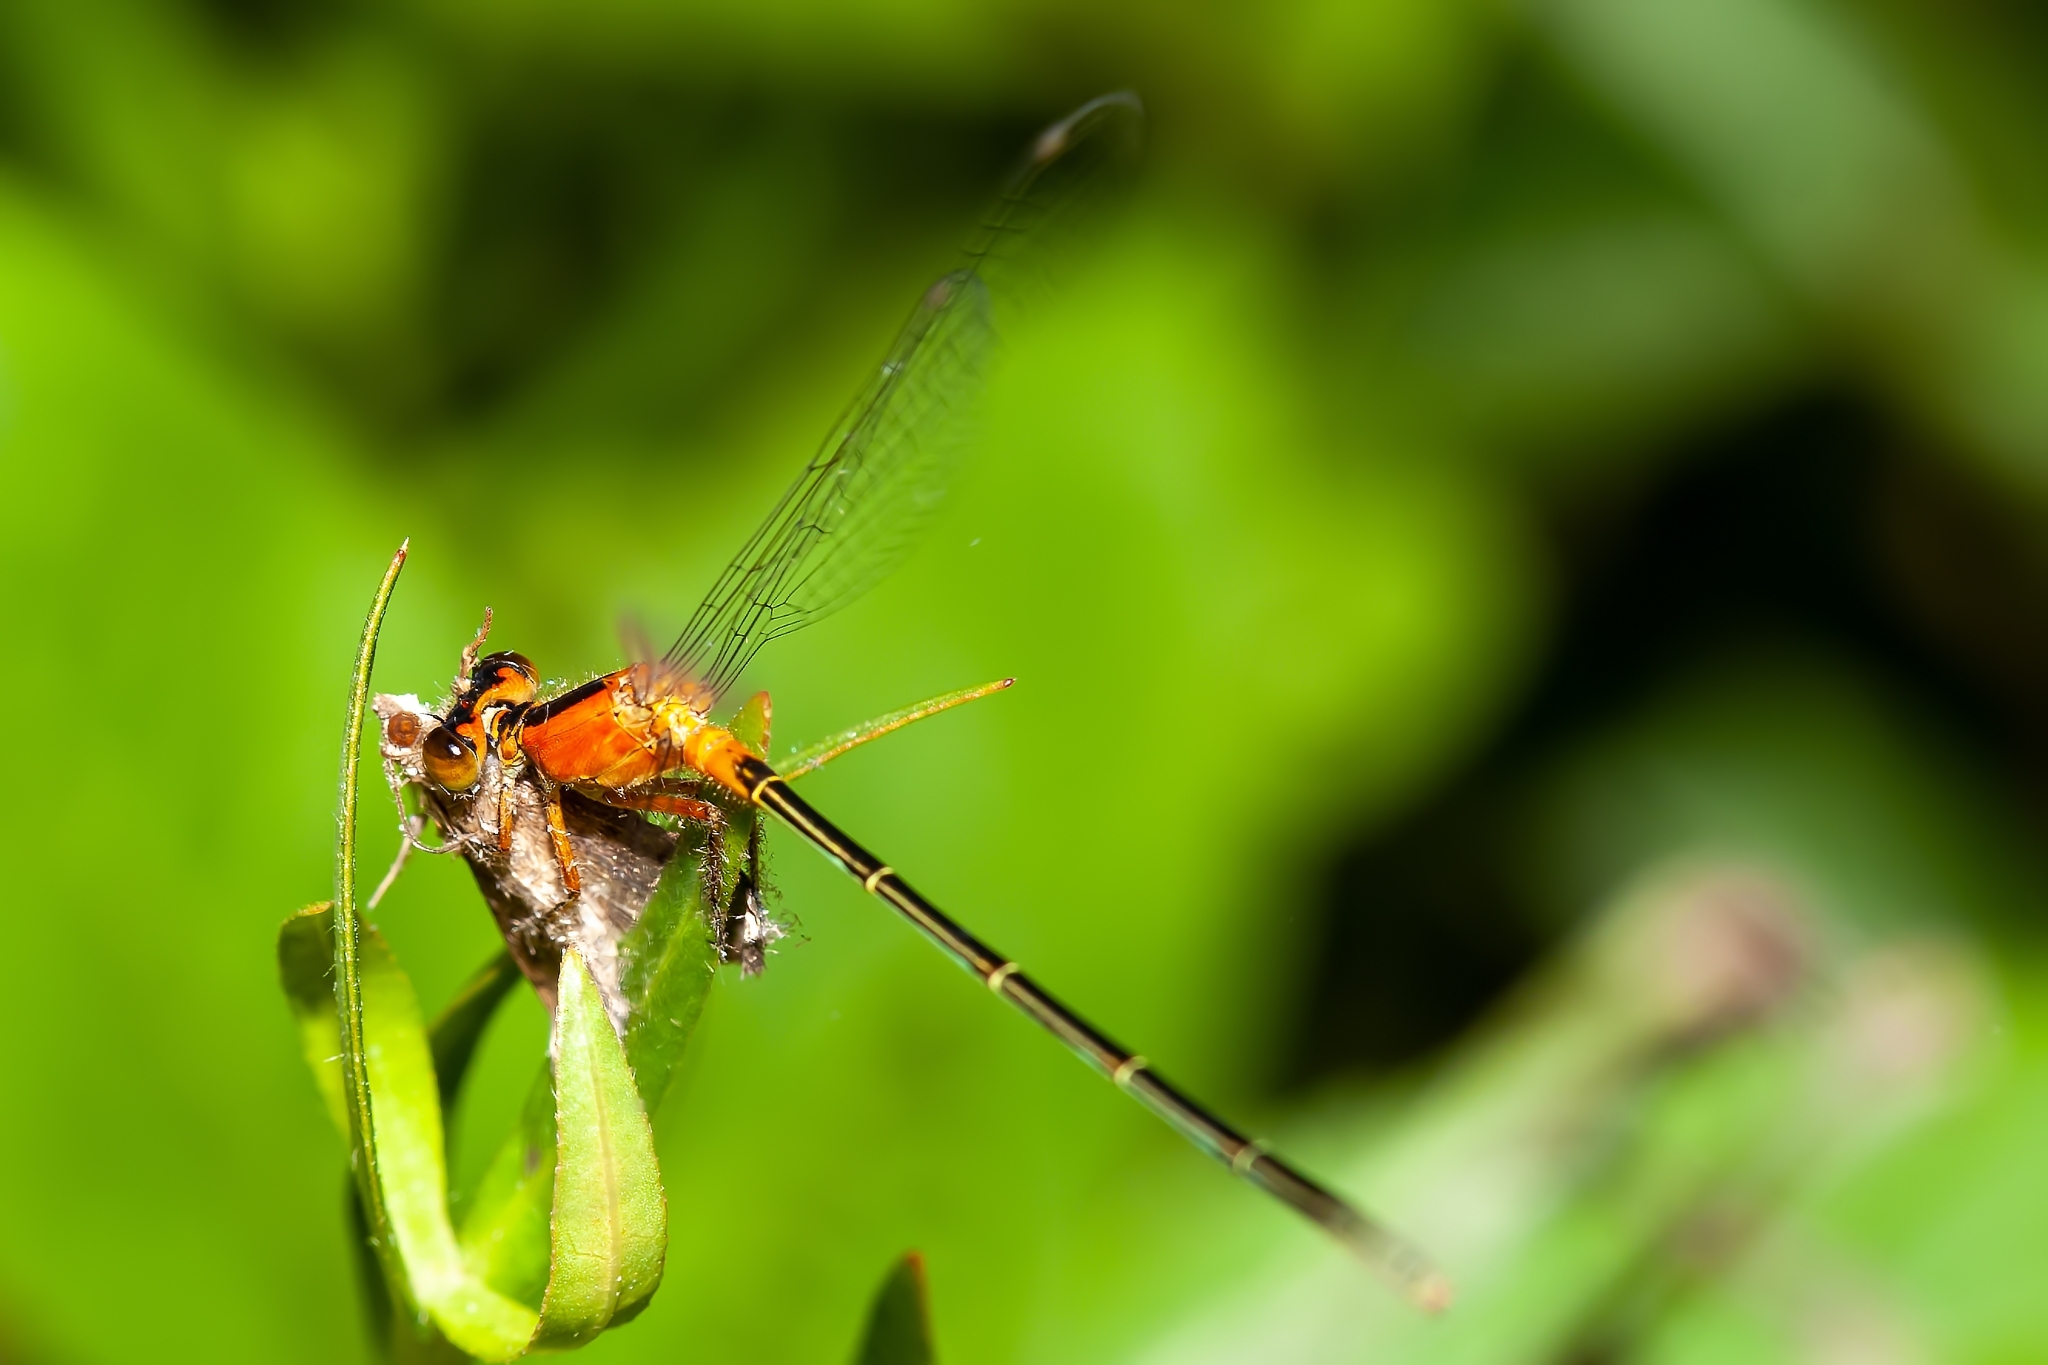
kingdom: Animalia
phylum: Arthropoda
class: Insecta
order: Odonata
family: Coenagrionidae
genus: Ischnura
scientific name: Ischnura ramburii
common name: Rambur's forktail
